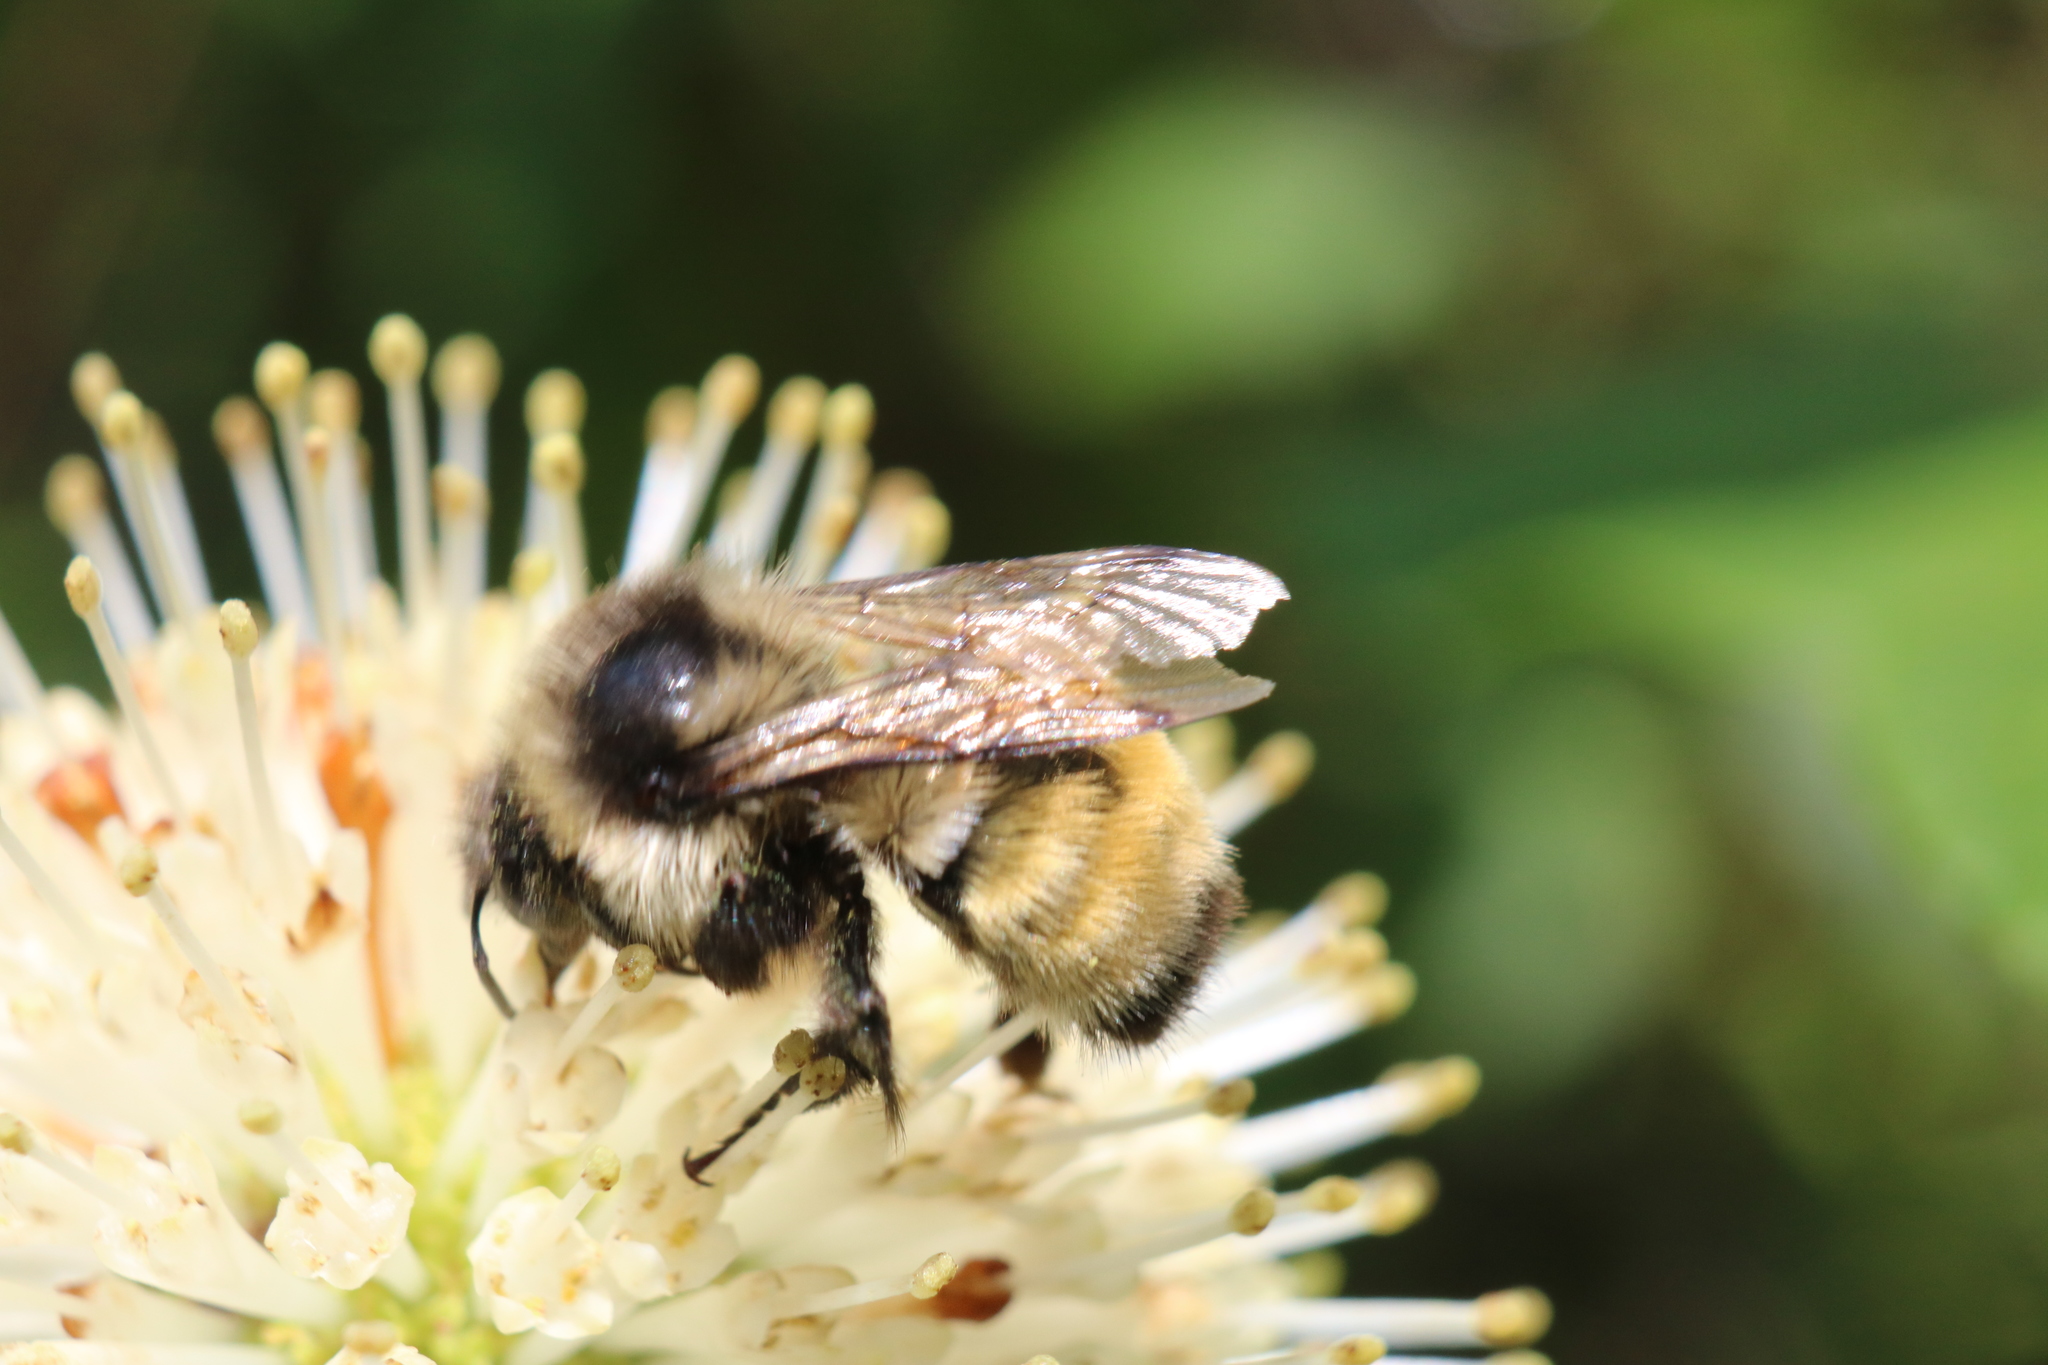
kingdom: Animalia
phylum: Arthropoda
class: Insecta
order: Hymenoptera
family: Apidae
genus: Bombus
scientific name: Bombus ternarius
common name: Tri-colored bumble bee
